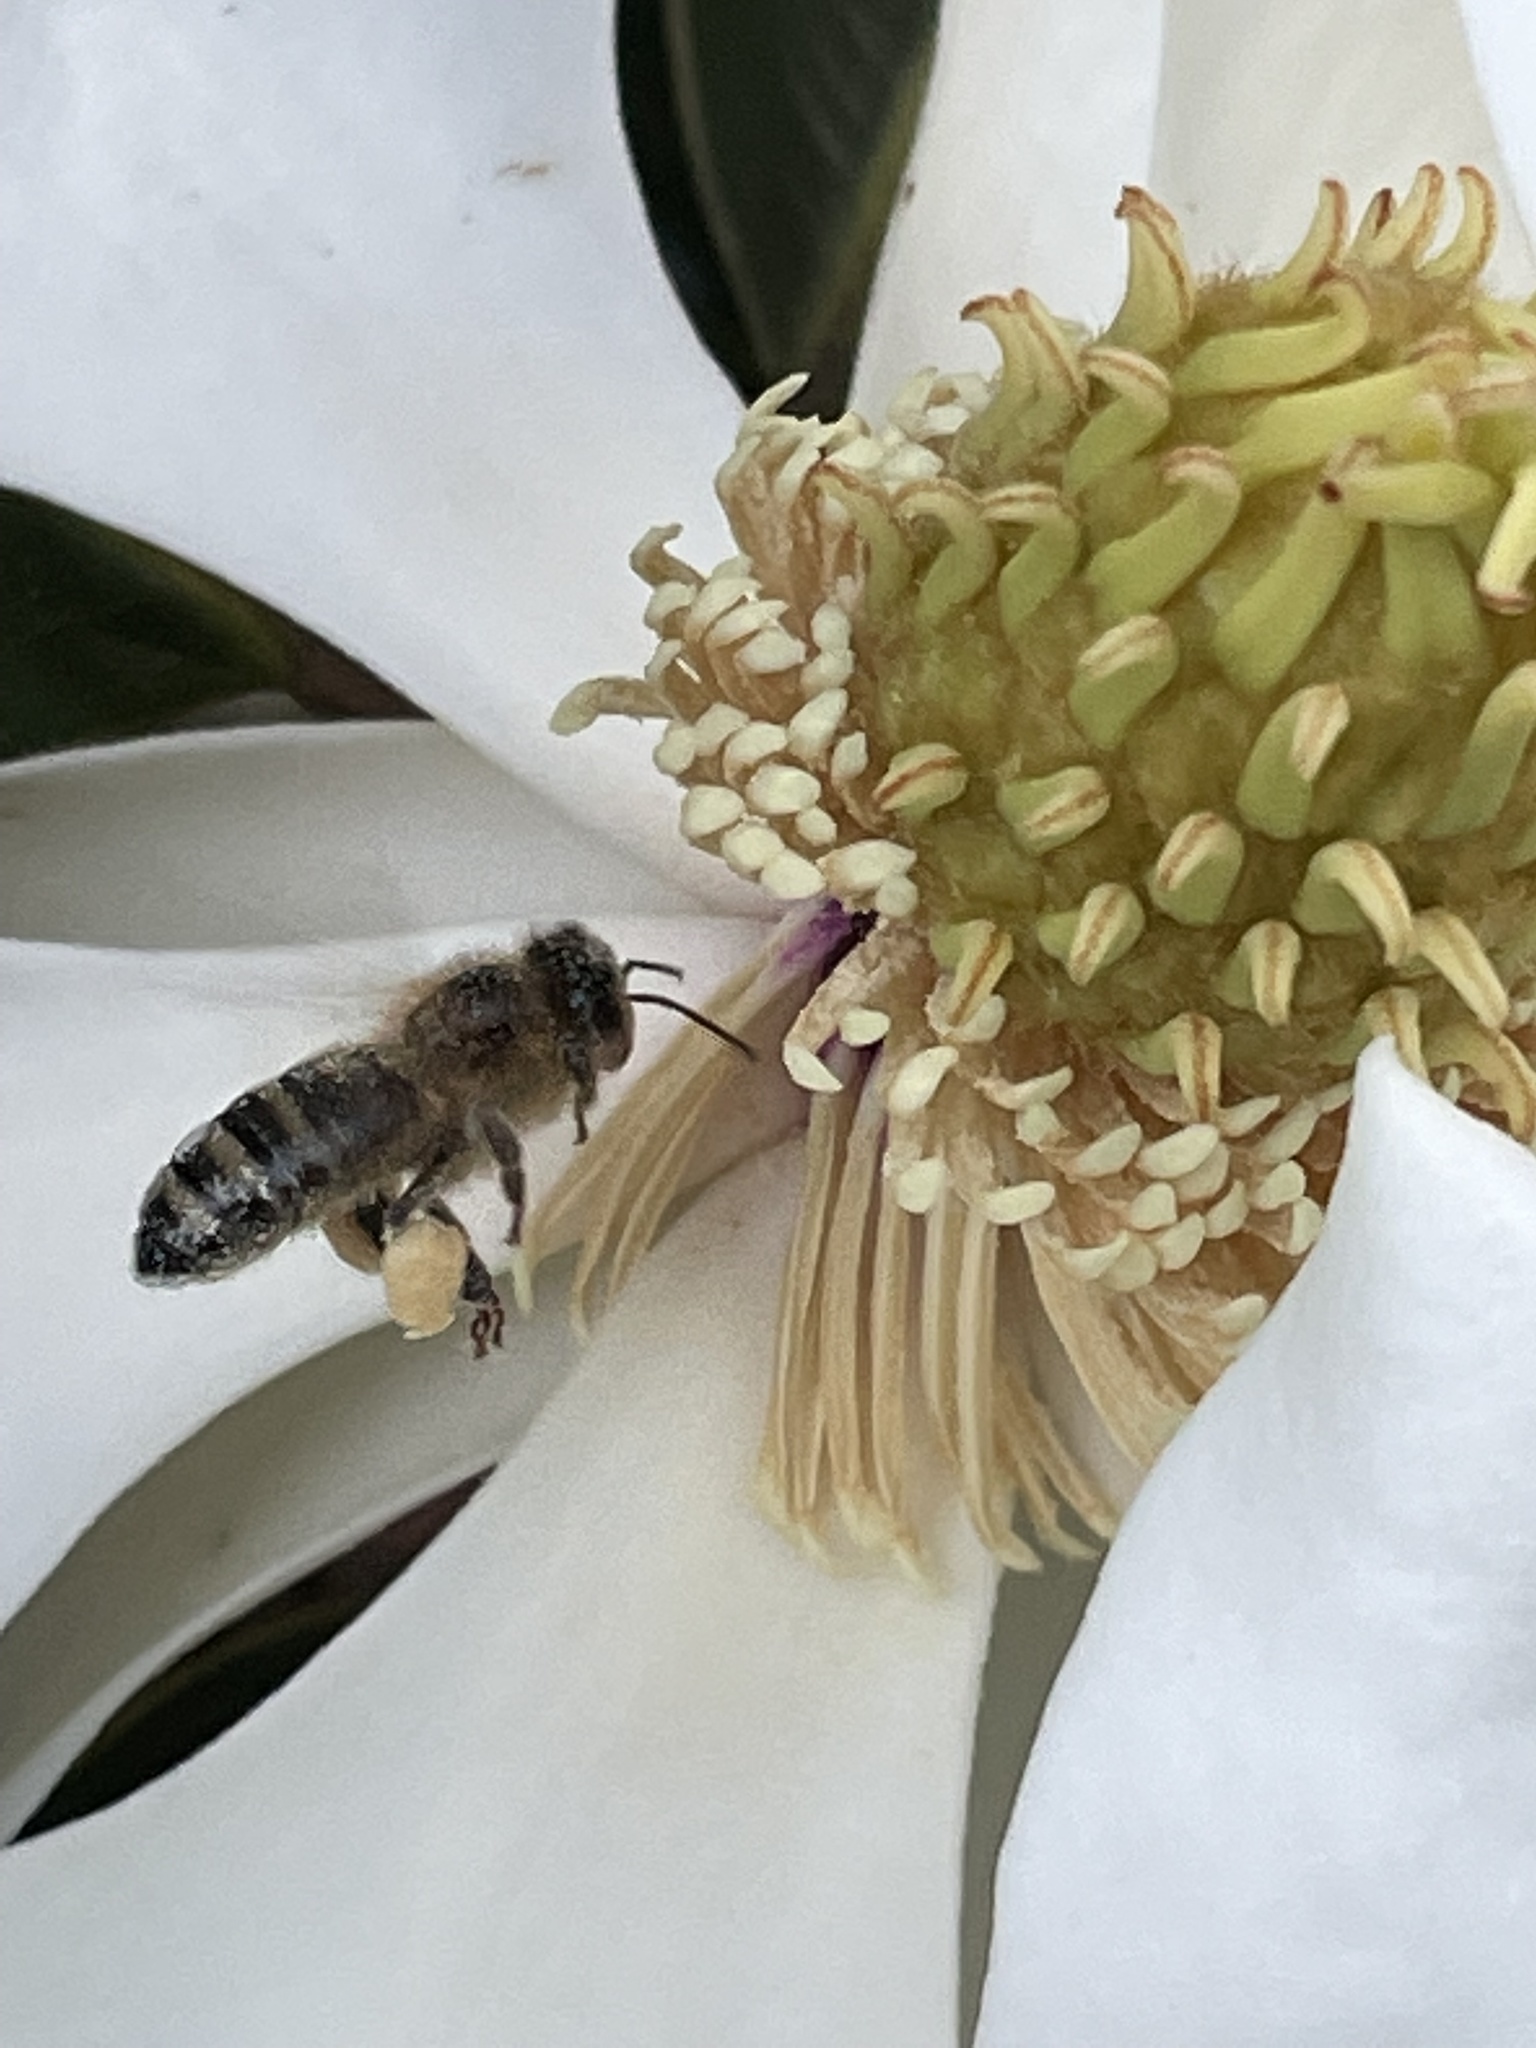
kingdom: Animalia
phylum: Arthropoda
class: Insecta
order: Hymenoptera
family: Apidae
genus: Apis
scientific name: Apis mellifera
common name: Honey bee
